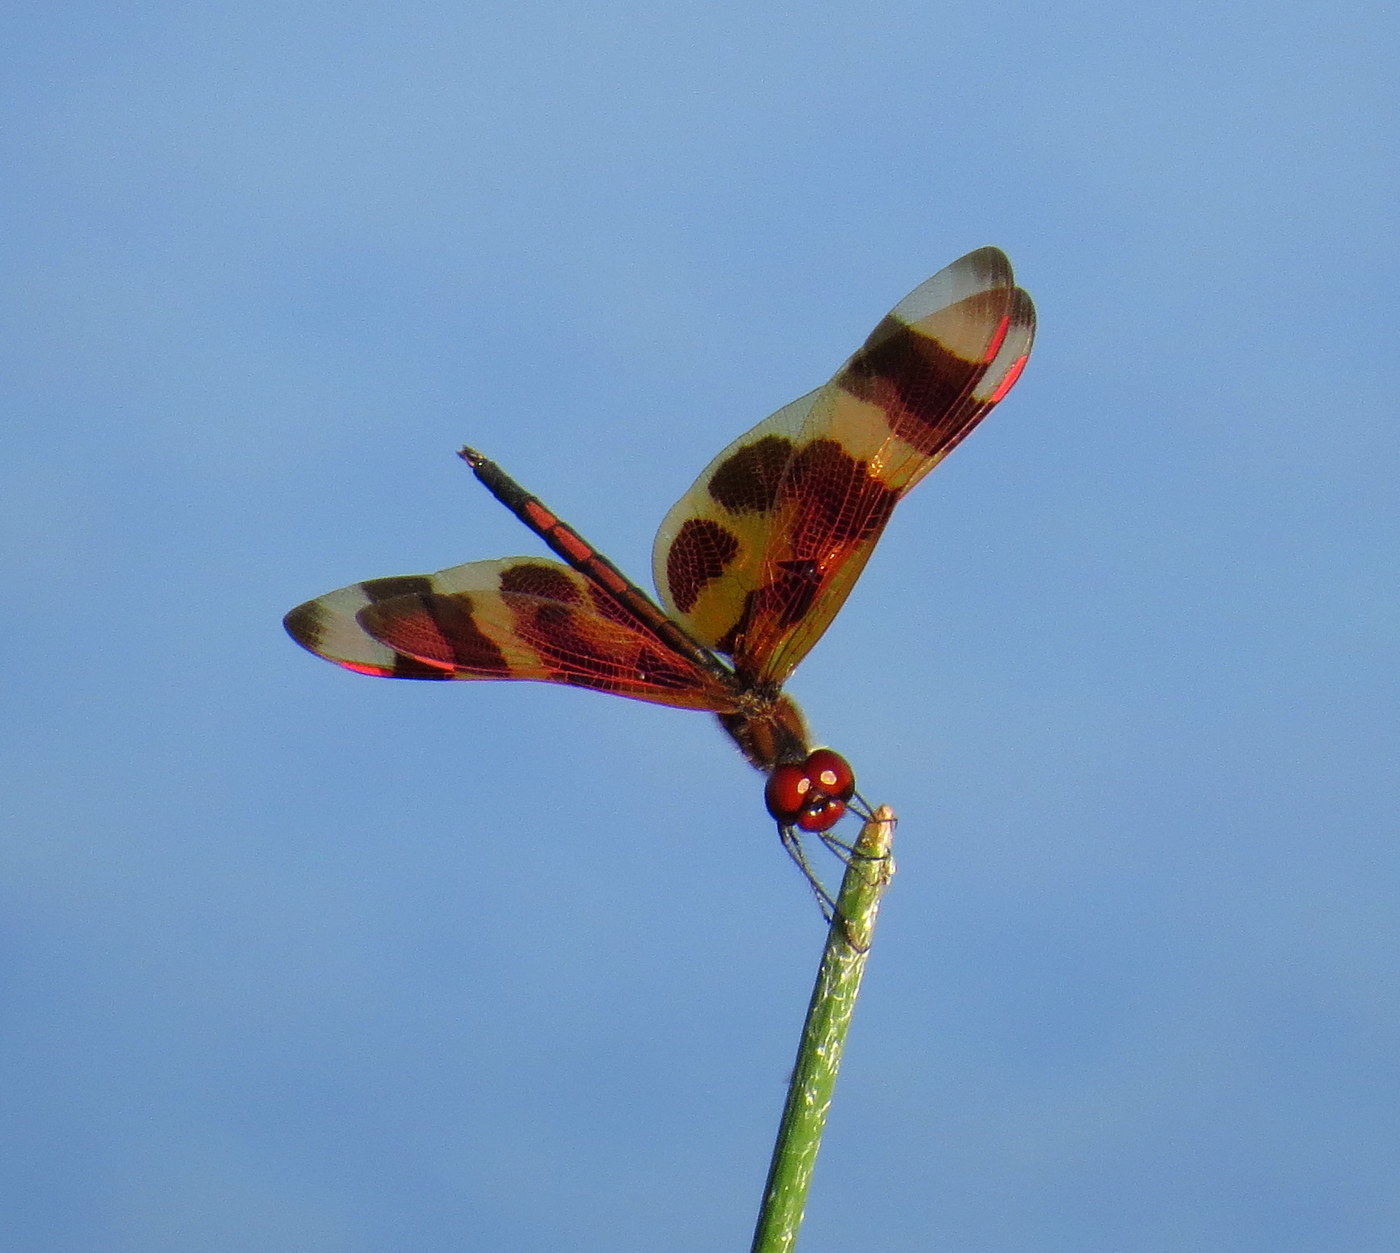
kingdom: Animalia
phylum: Arthropoda
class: Insecta
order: Odonata
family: Libellulidae
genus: Celithemis
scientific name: Celithemis eponina
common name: Halloween pennant
